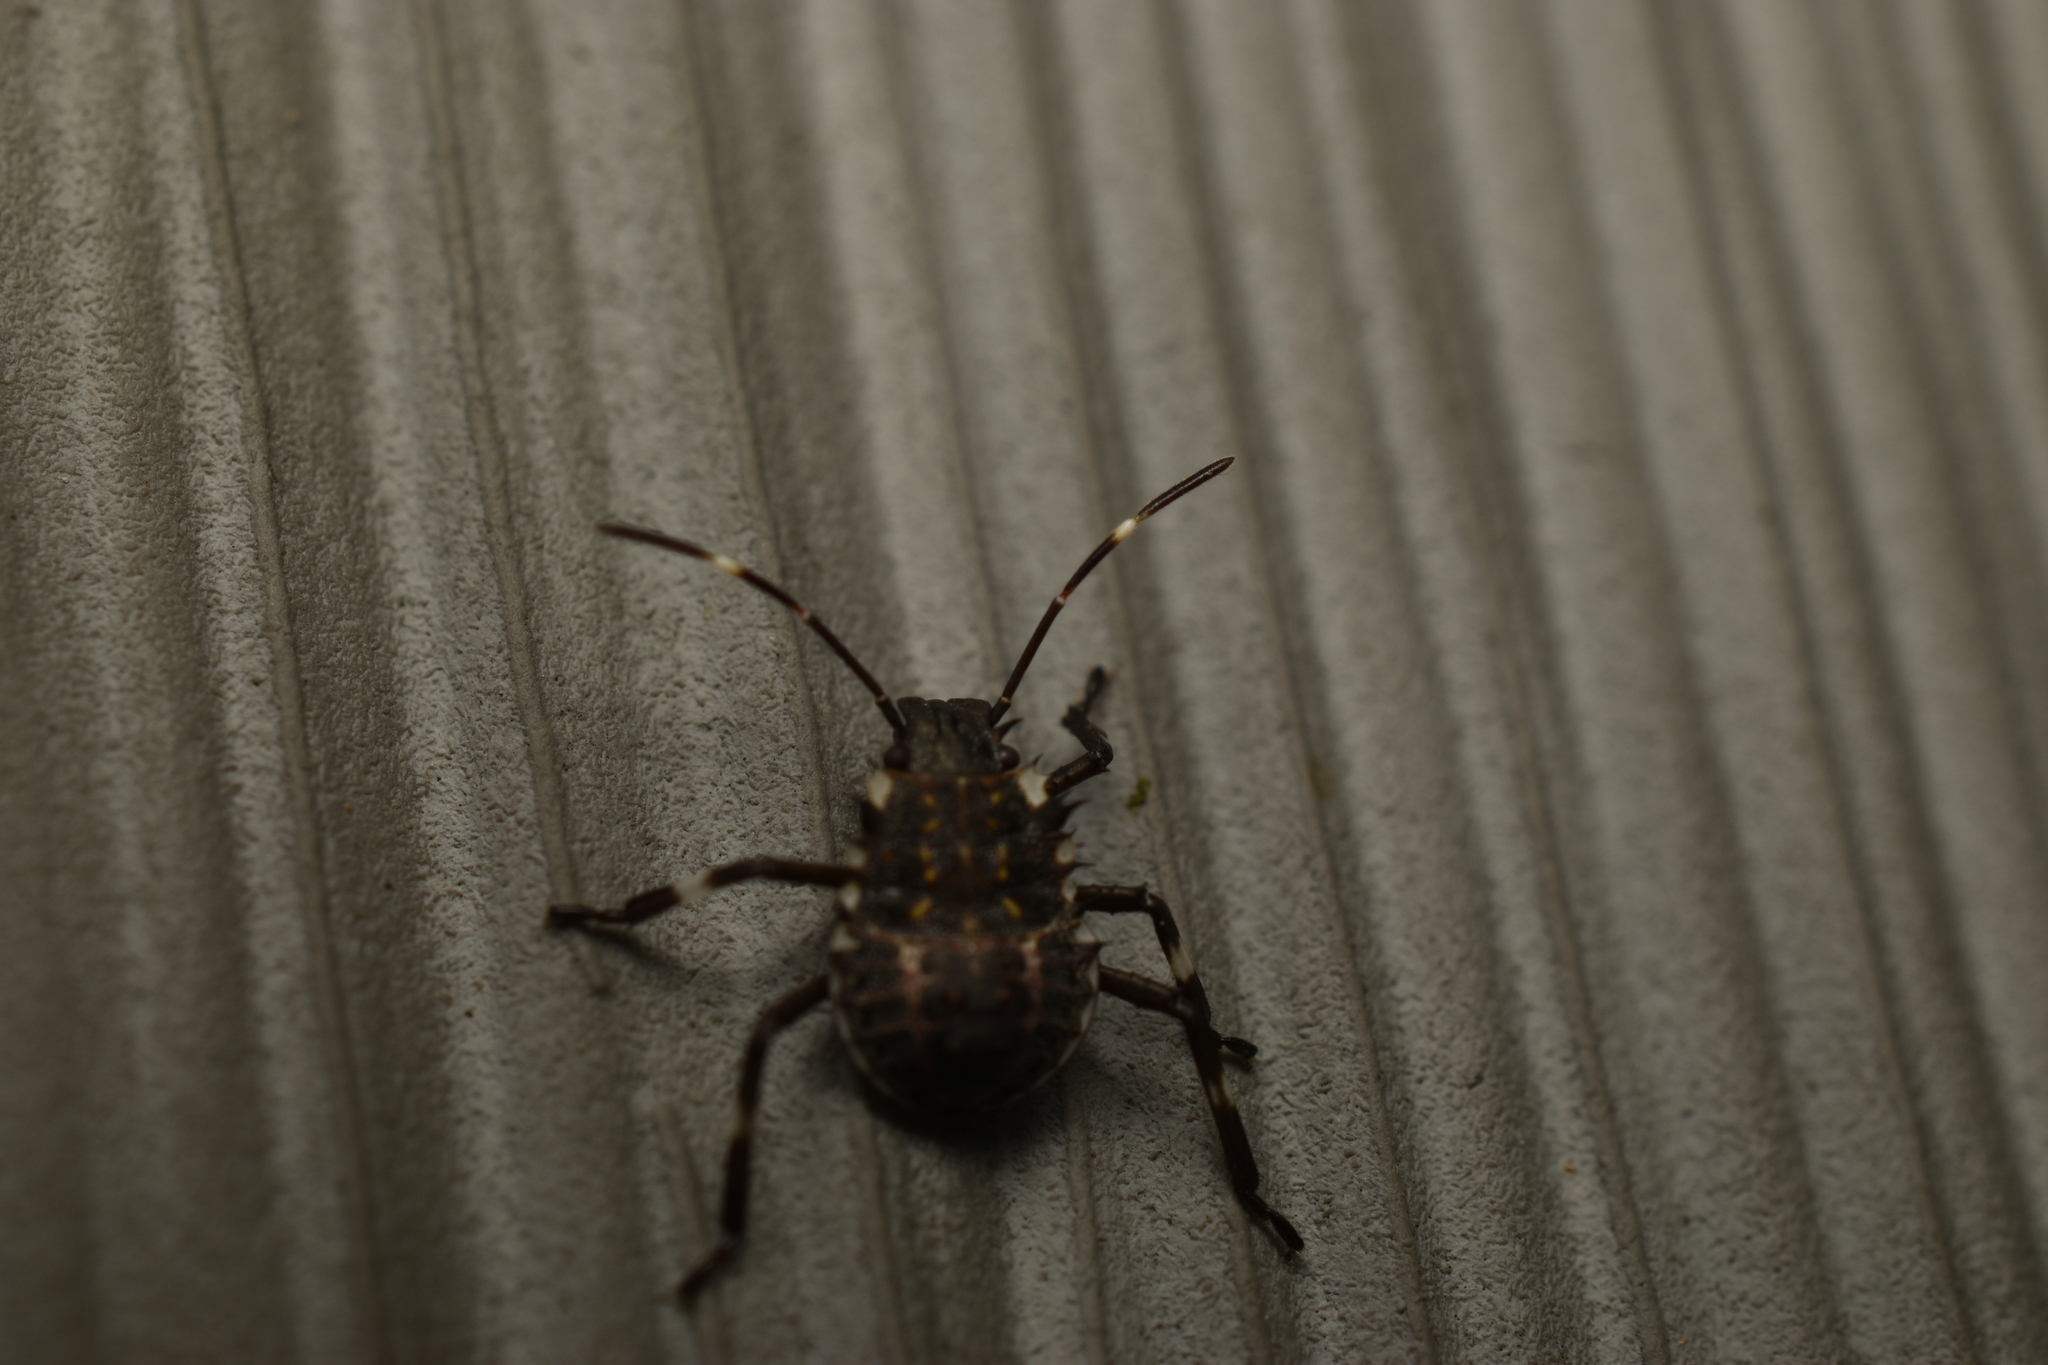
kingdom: Animalia
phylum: Arthropoda
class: Insecta
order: Hemiptera
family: Pentatomidae
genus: Halyomorpha
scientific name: Halyomorpha halys
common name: Brown marmorated stink bug
